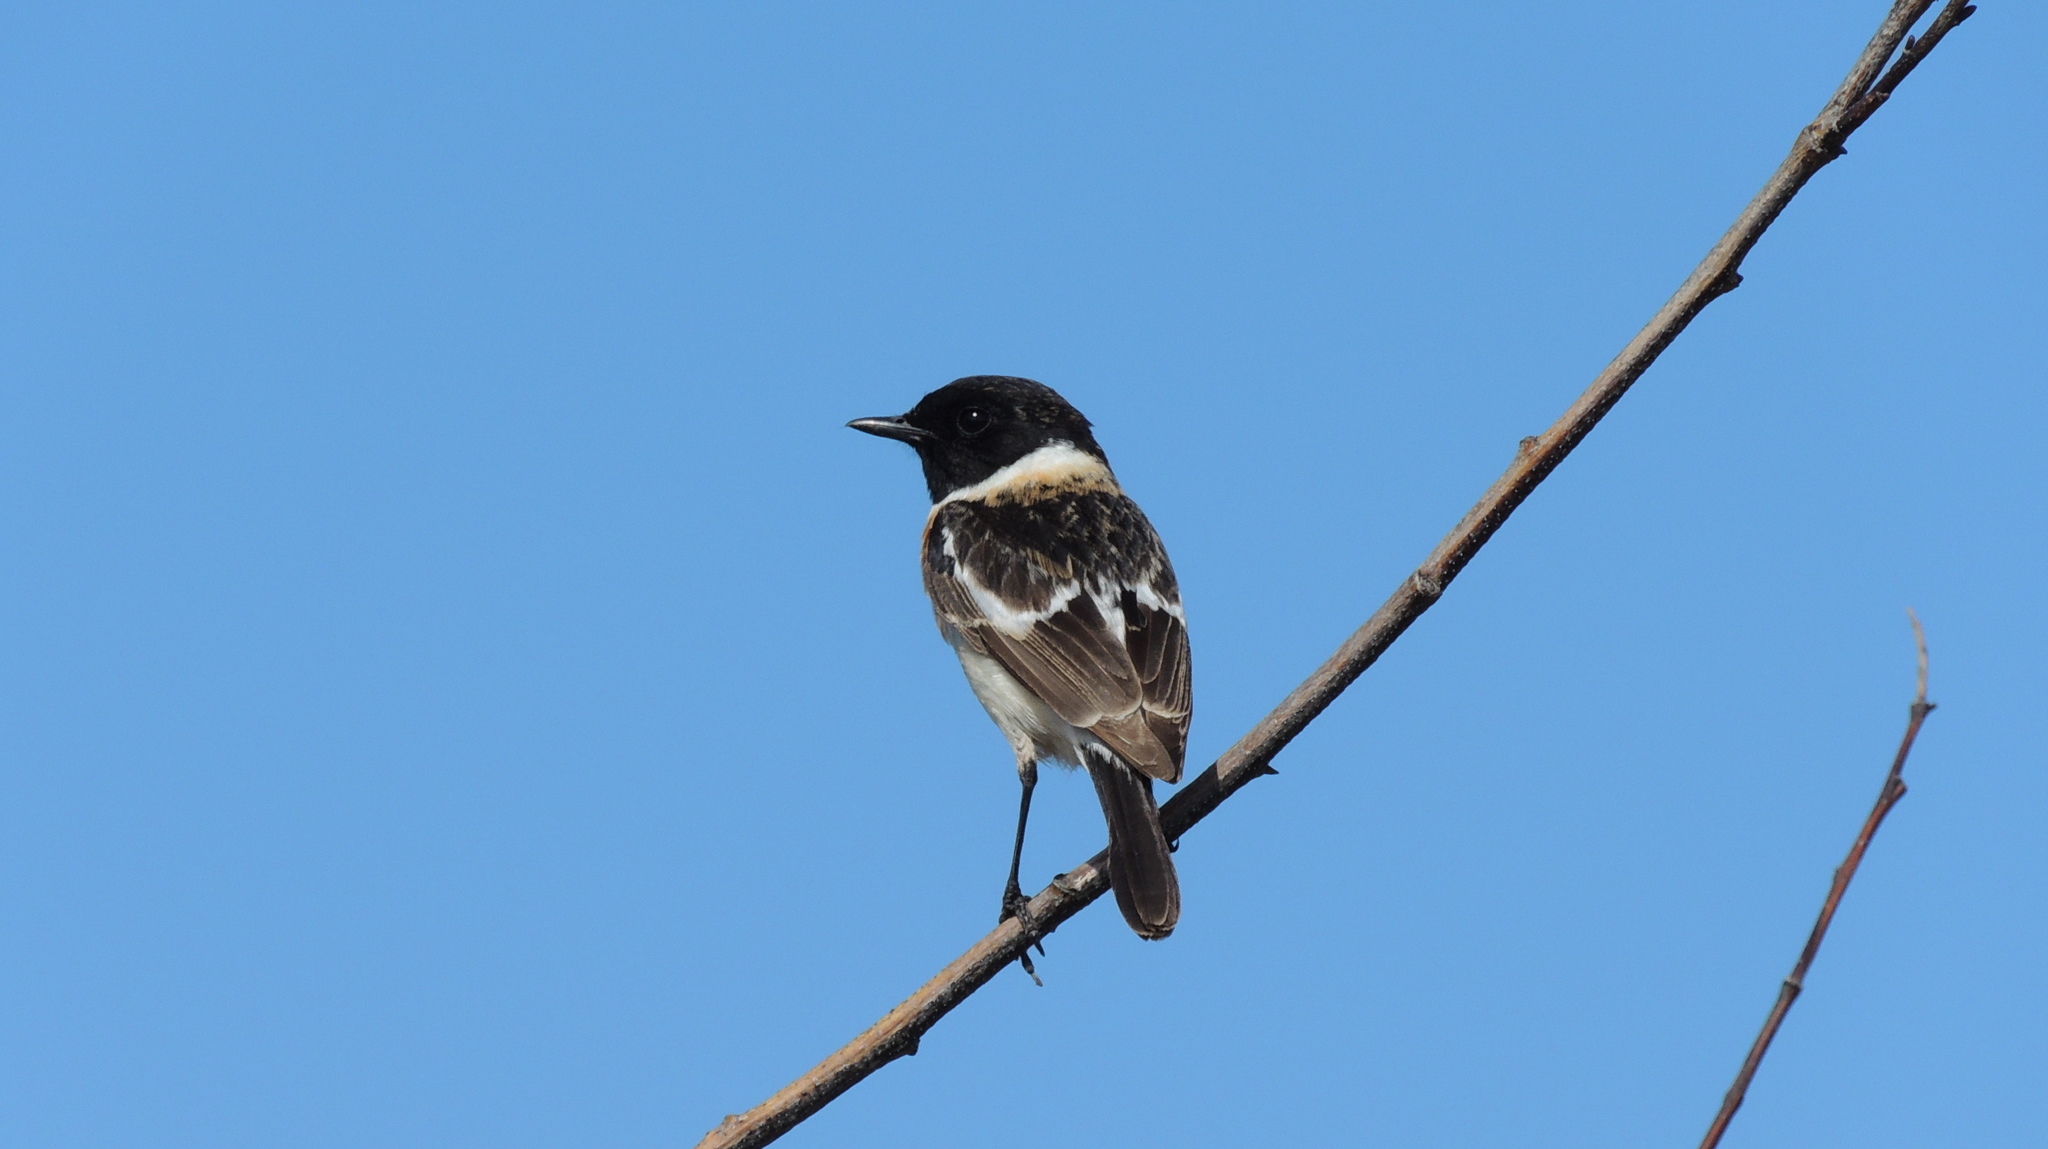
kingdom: Animalia
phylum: Chordata
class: Aves
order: Passeriformes
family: Muscicapidae
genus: Saxicola
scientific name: Saxicola maurus
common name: Siberian stonechat
